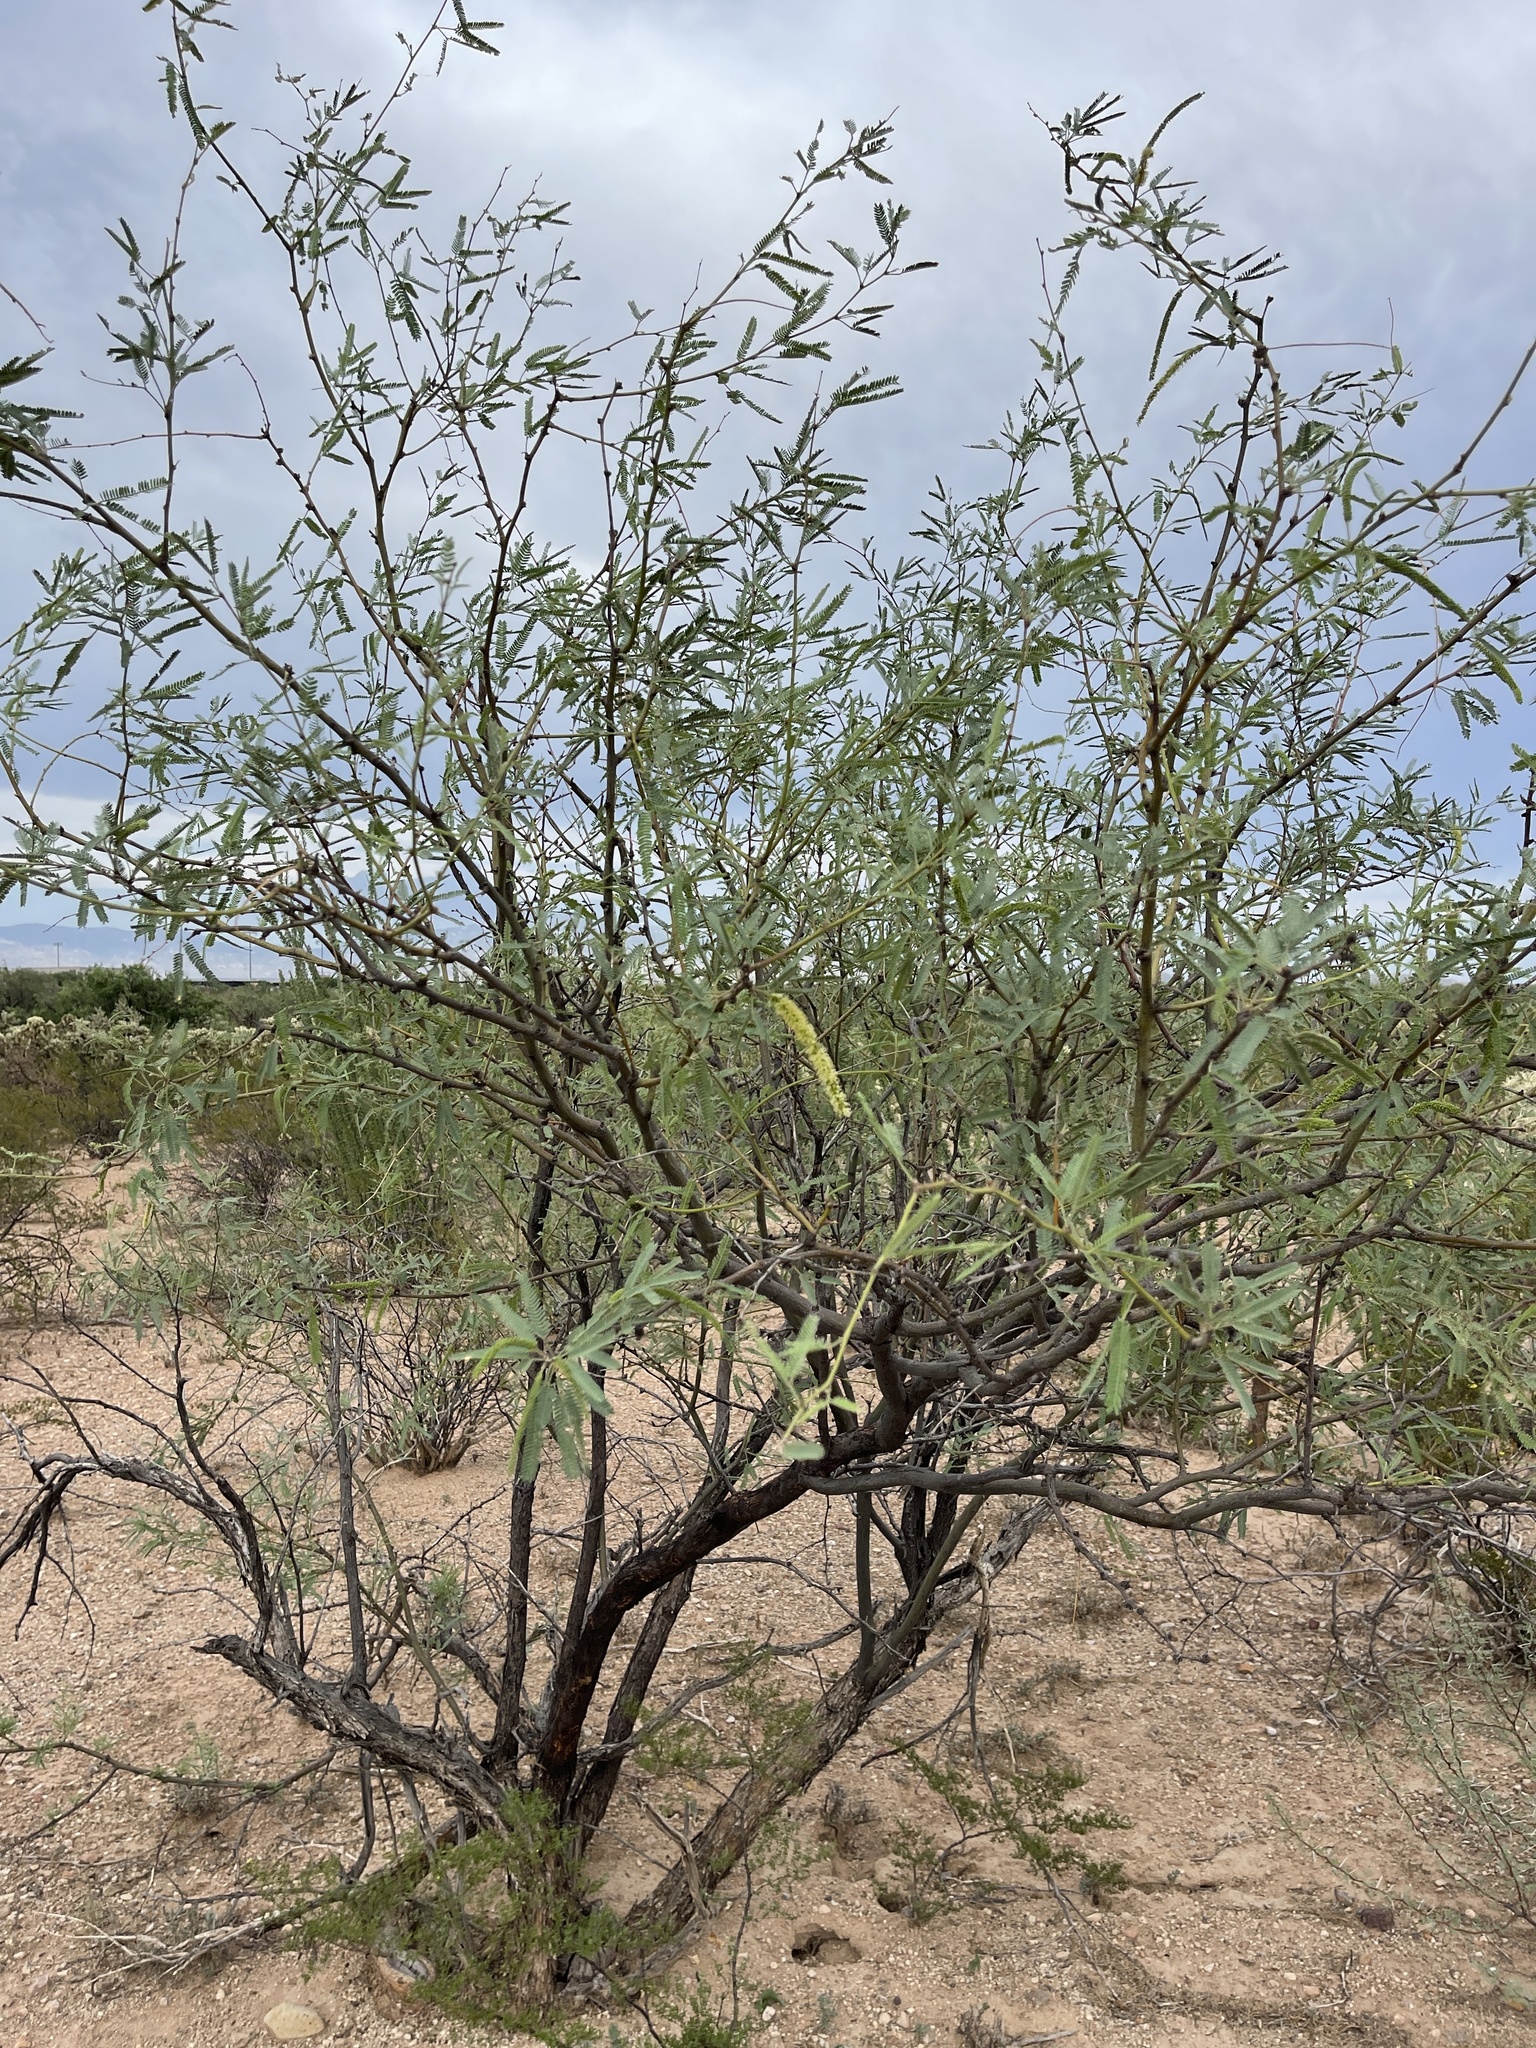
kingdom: Plantae
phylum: Tracheophyta
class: Magnoliopsida
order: Fabales
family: Fabaceae
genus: Prosopis
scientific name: Prosopis velutina
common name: Velvet mesquite
